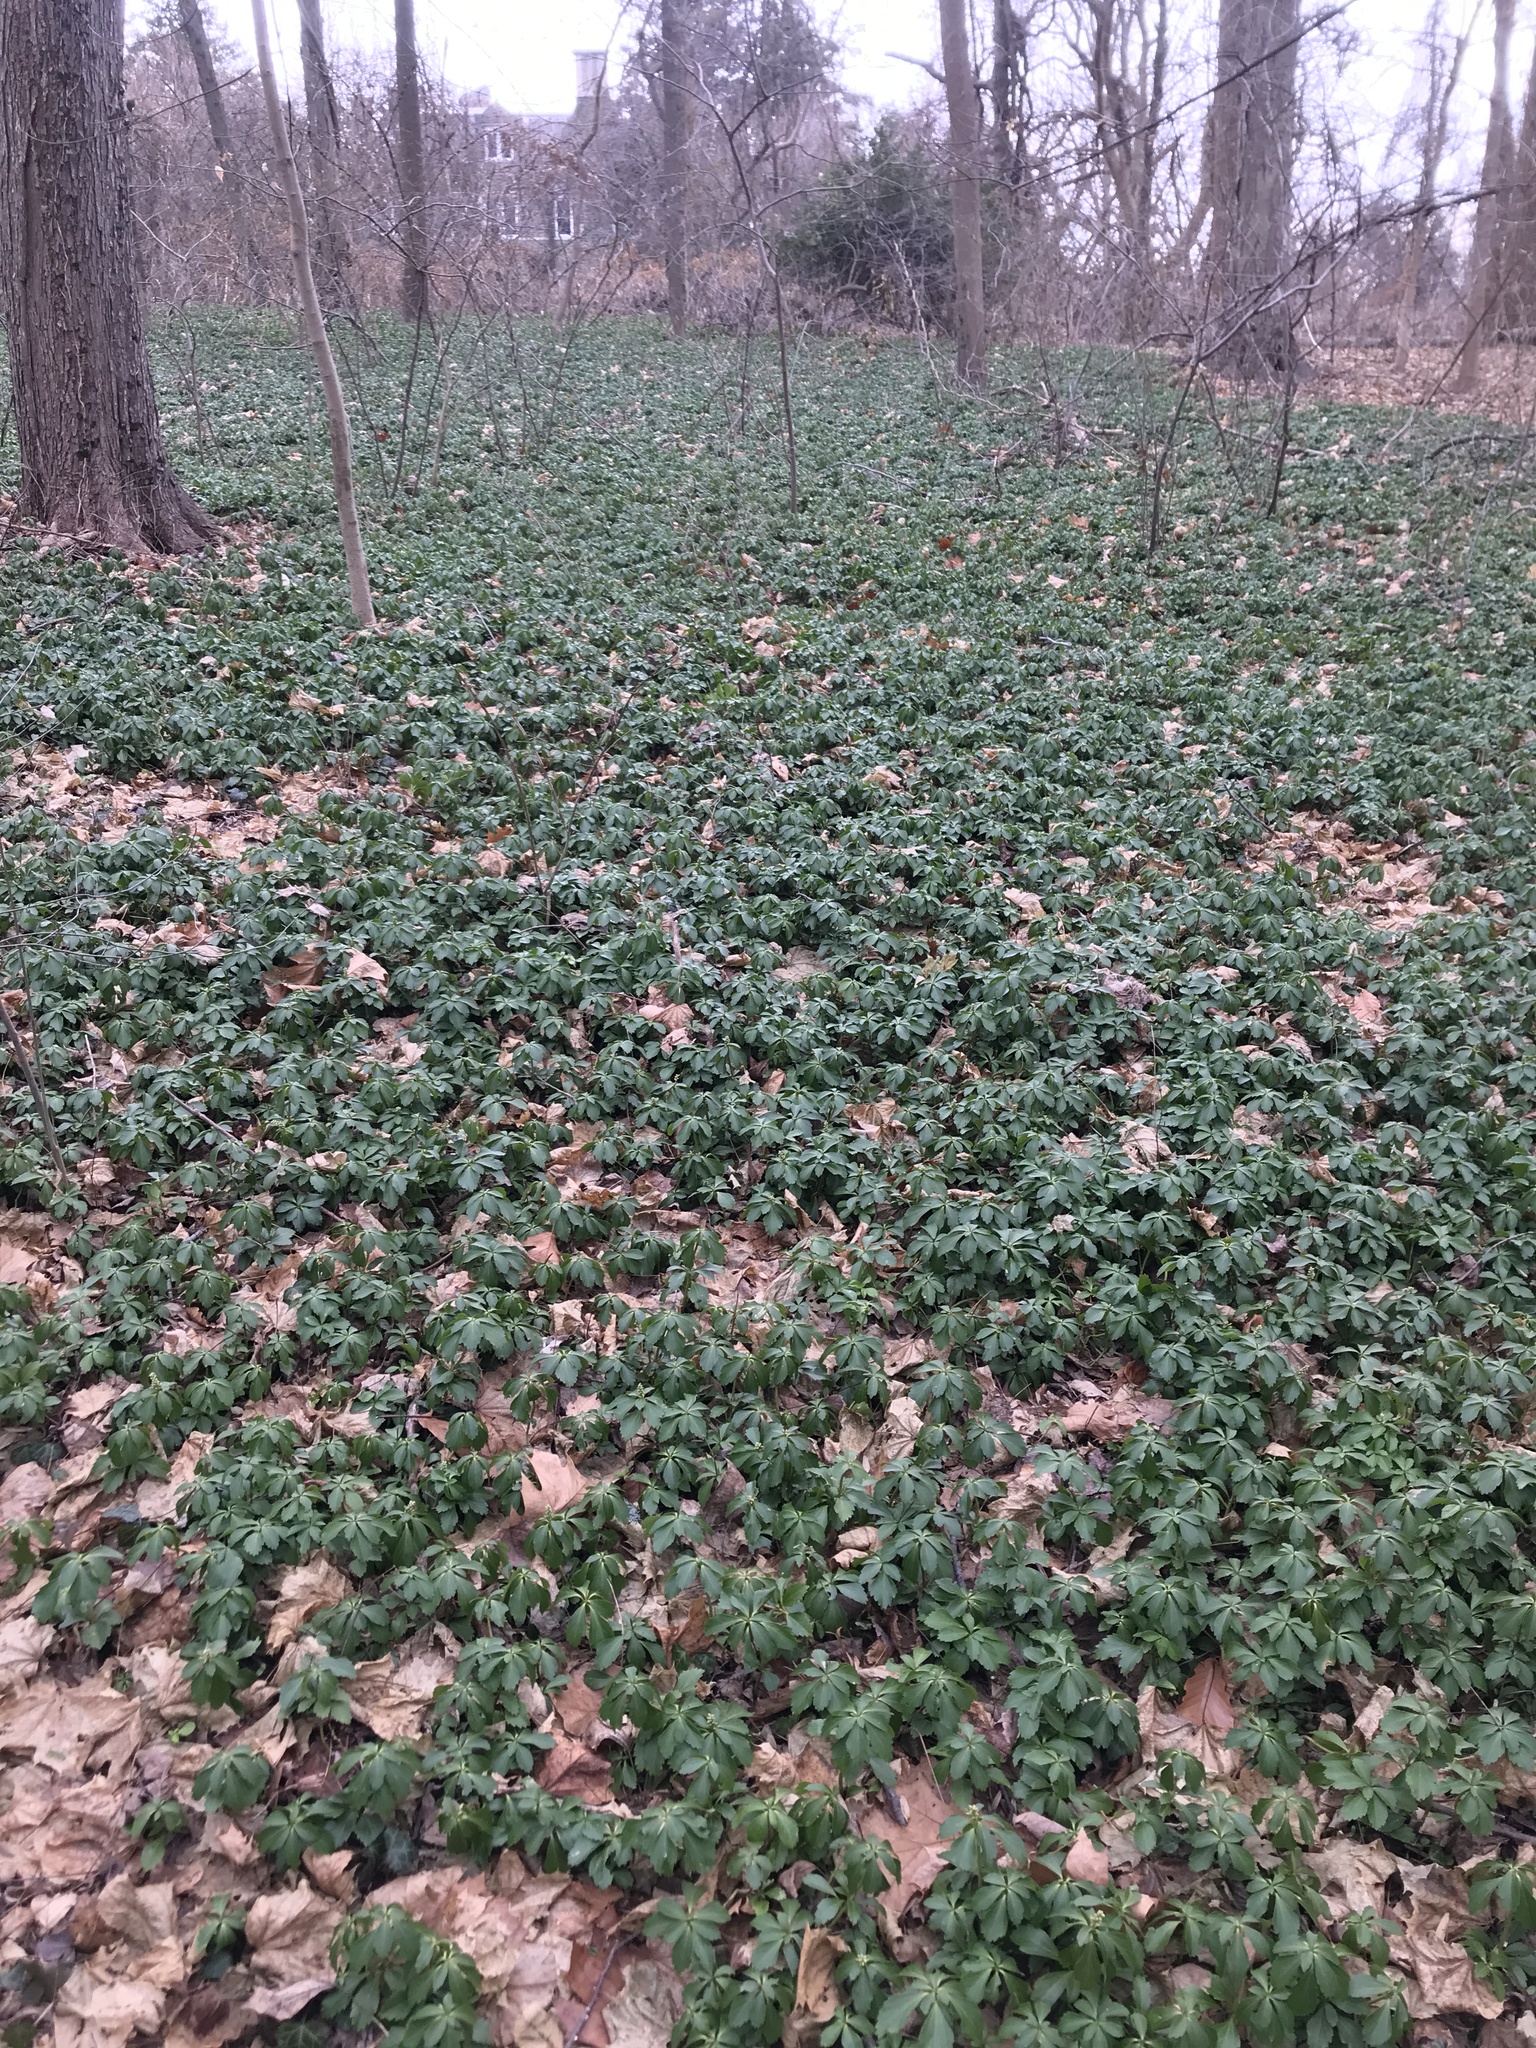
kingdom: Plantae
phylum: Tracheophyta
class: Magnoliopsida
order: Buxales
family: Buxaceae
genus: Pachysandra
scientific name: Pachysandra terminalis
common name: Japanese pachysandra
